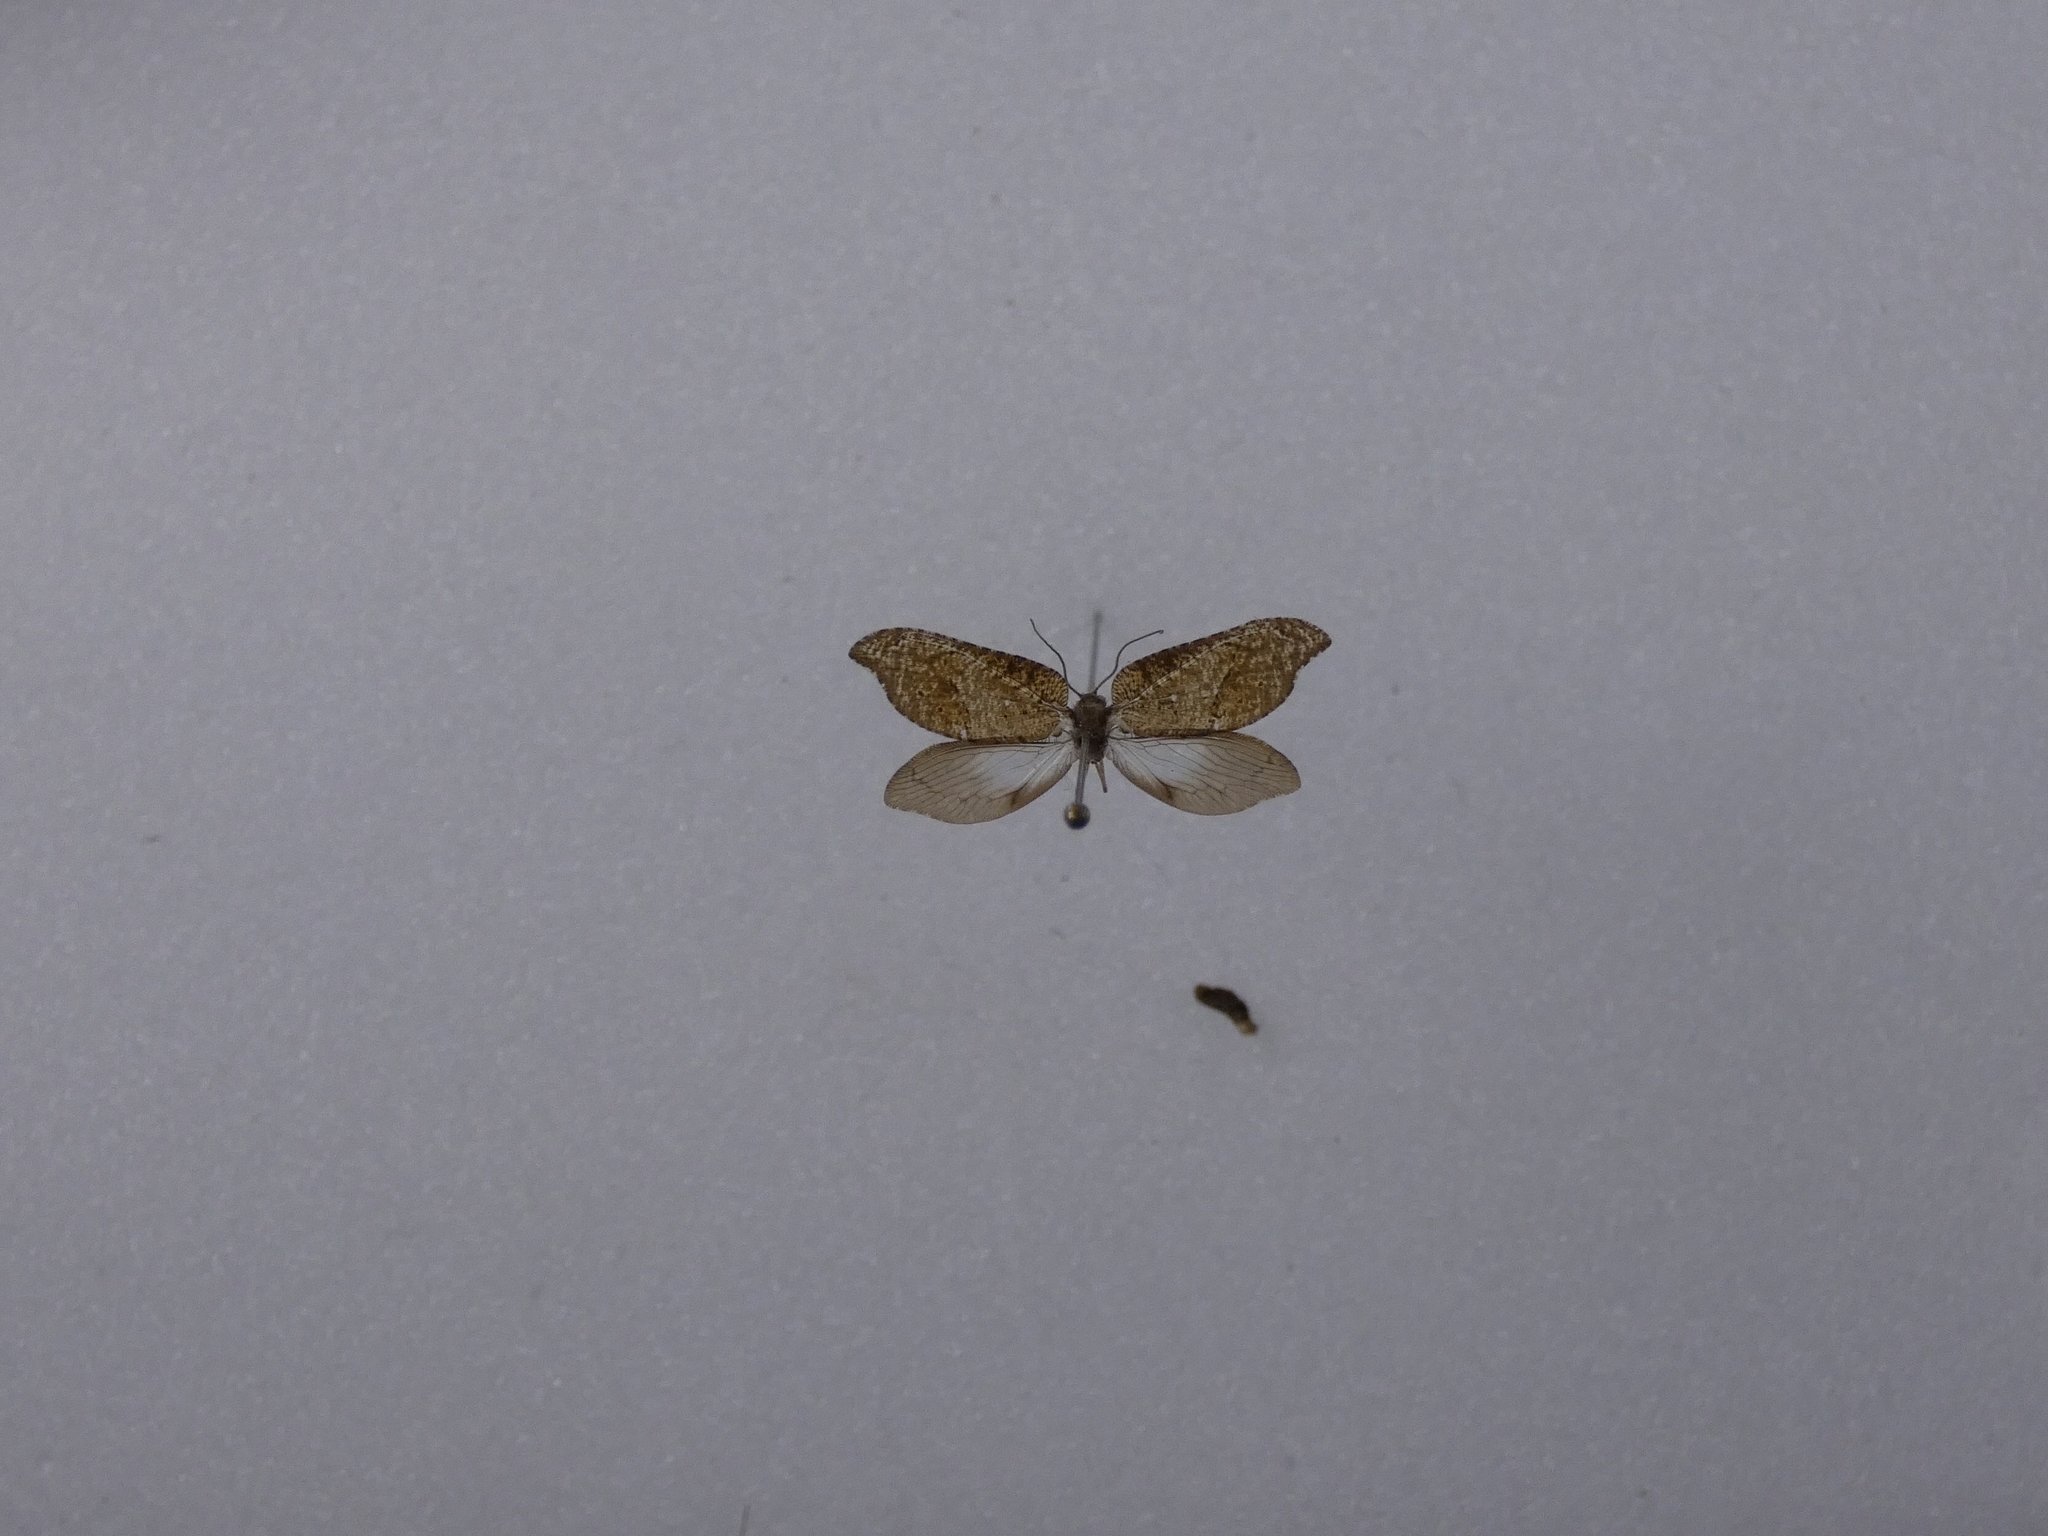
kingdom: Animalia
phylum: Arthropoda
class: Insecta
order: Neuroptera
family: Hemerobiidae
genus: Drepanacra
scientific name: Drepanacra binocula
